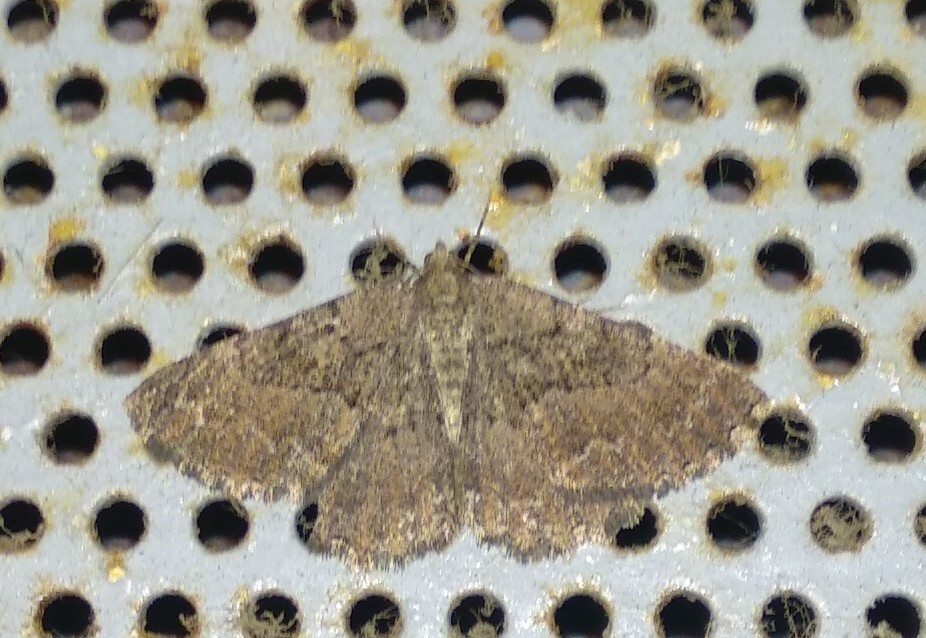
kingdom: Animalia
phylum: Arthropoda
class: Insecta
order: Lepidoptera
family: Geometridae
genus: Selidosema
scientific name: Selidosema taeniolaria
